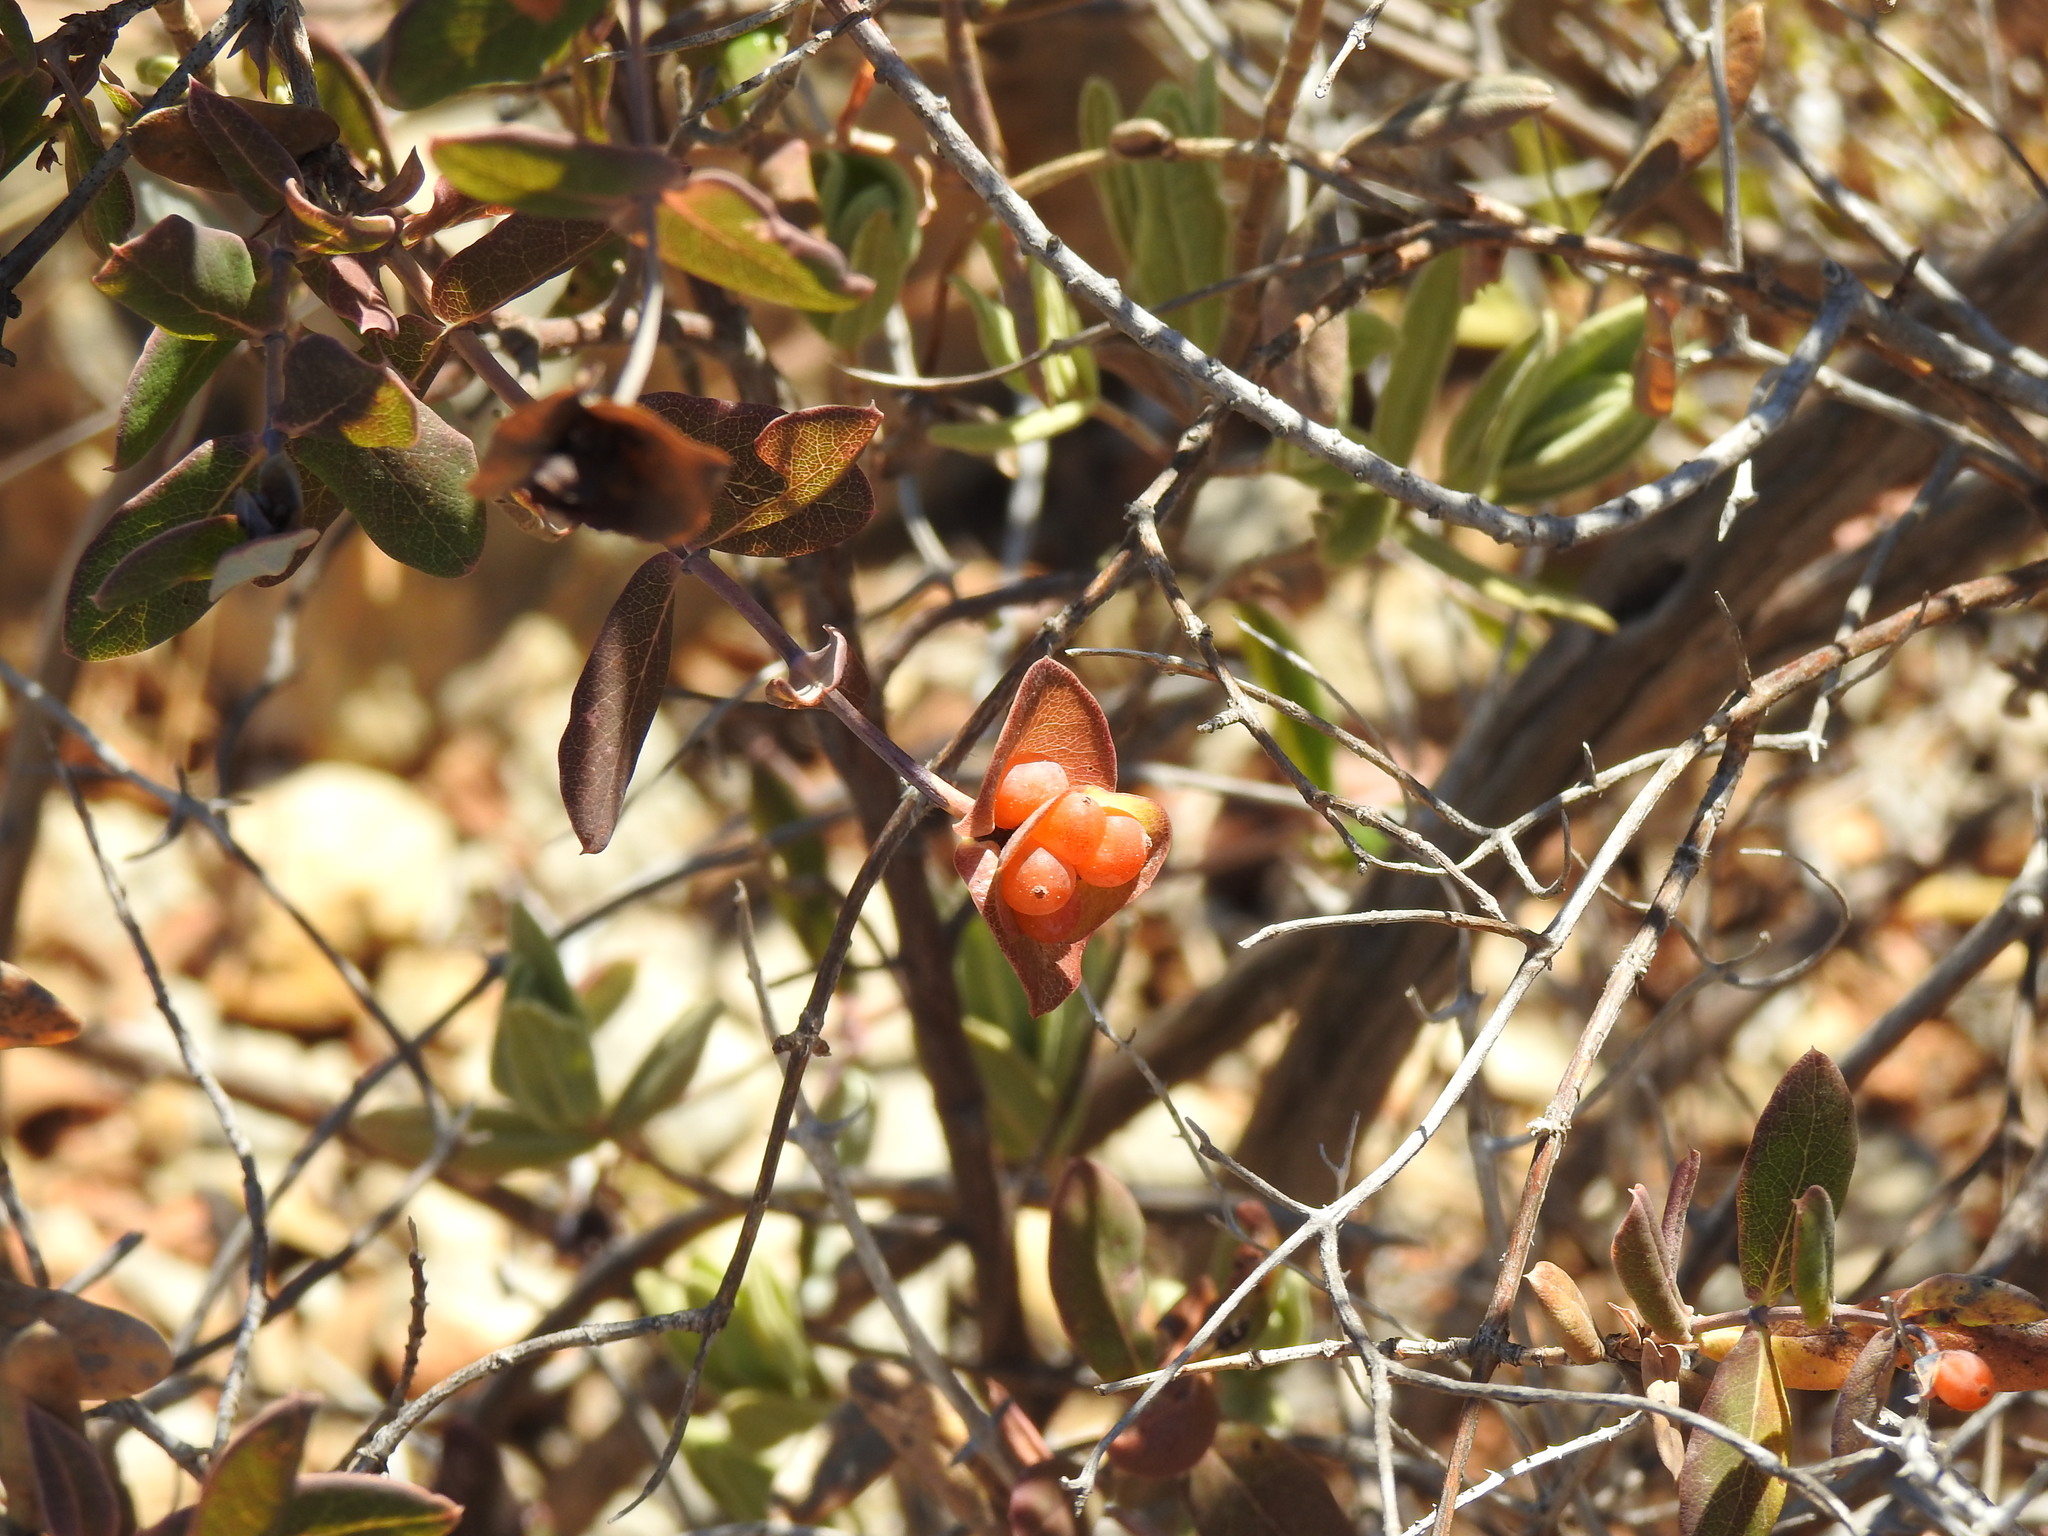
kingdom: Plantae
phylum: Tracheophyta
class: Magnoliopsida
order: Dipsacales
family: Caprifoliaceae
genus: Lonicera
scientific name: Lonicera implexa
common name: Minorca honeysuckle
